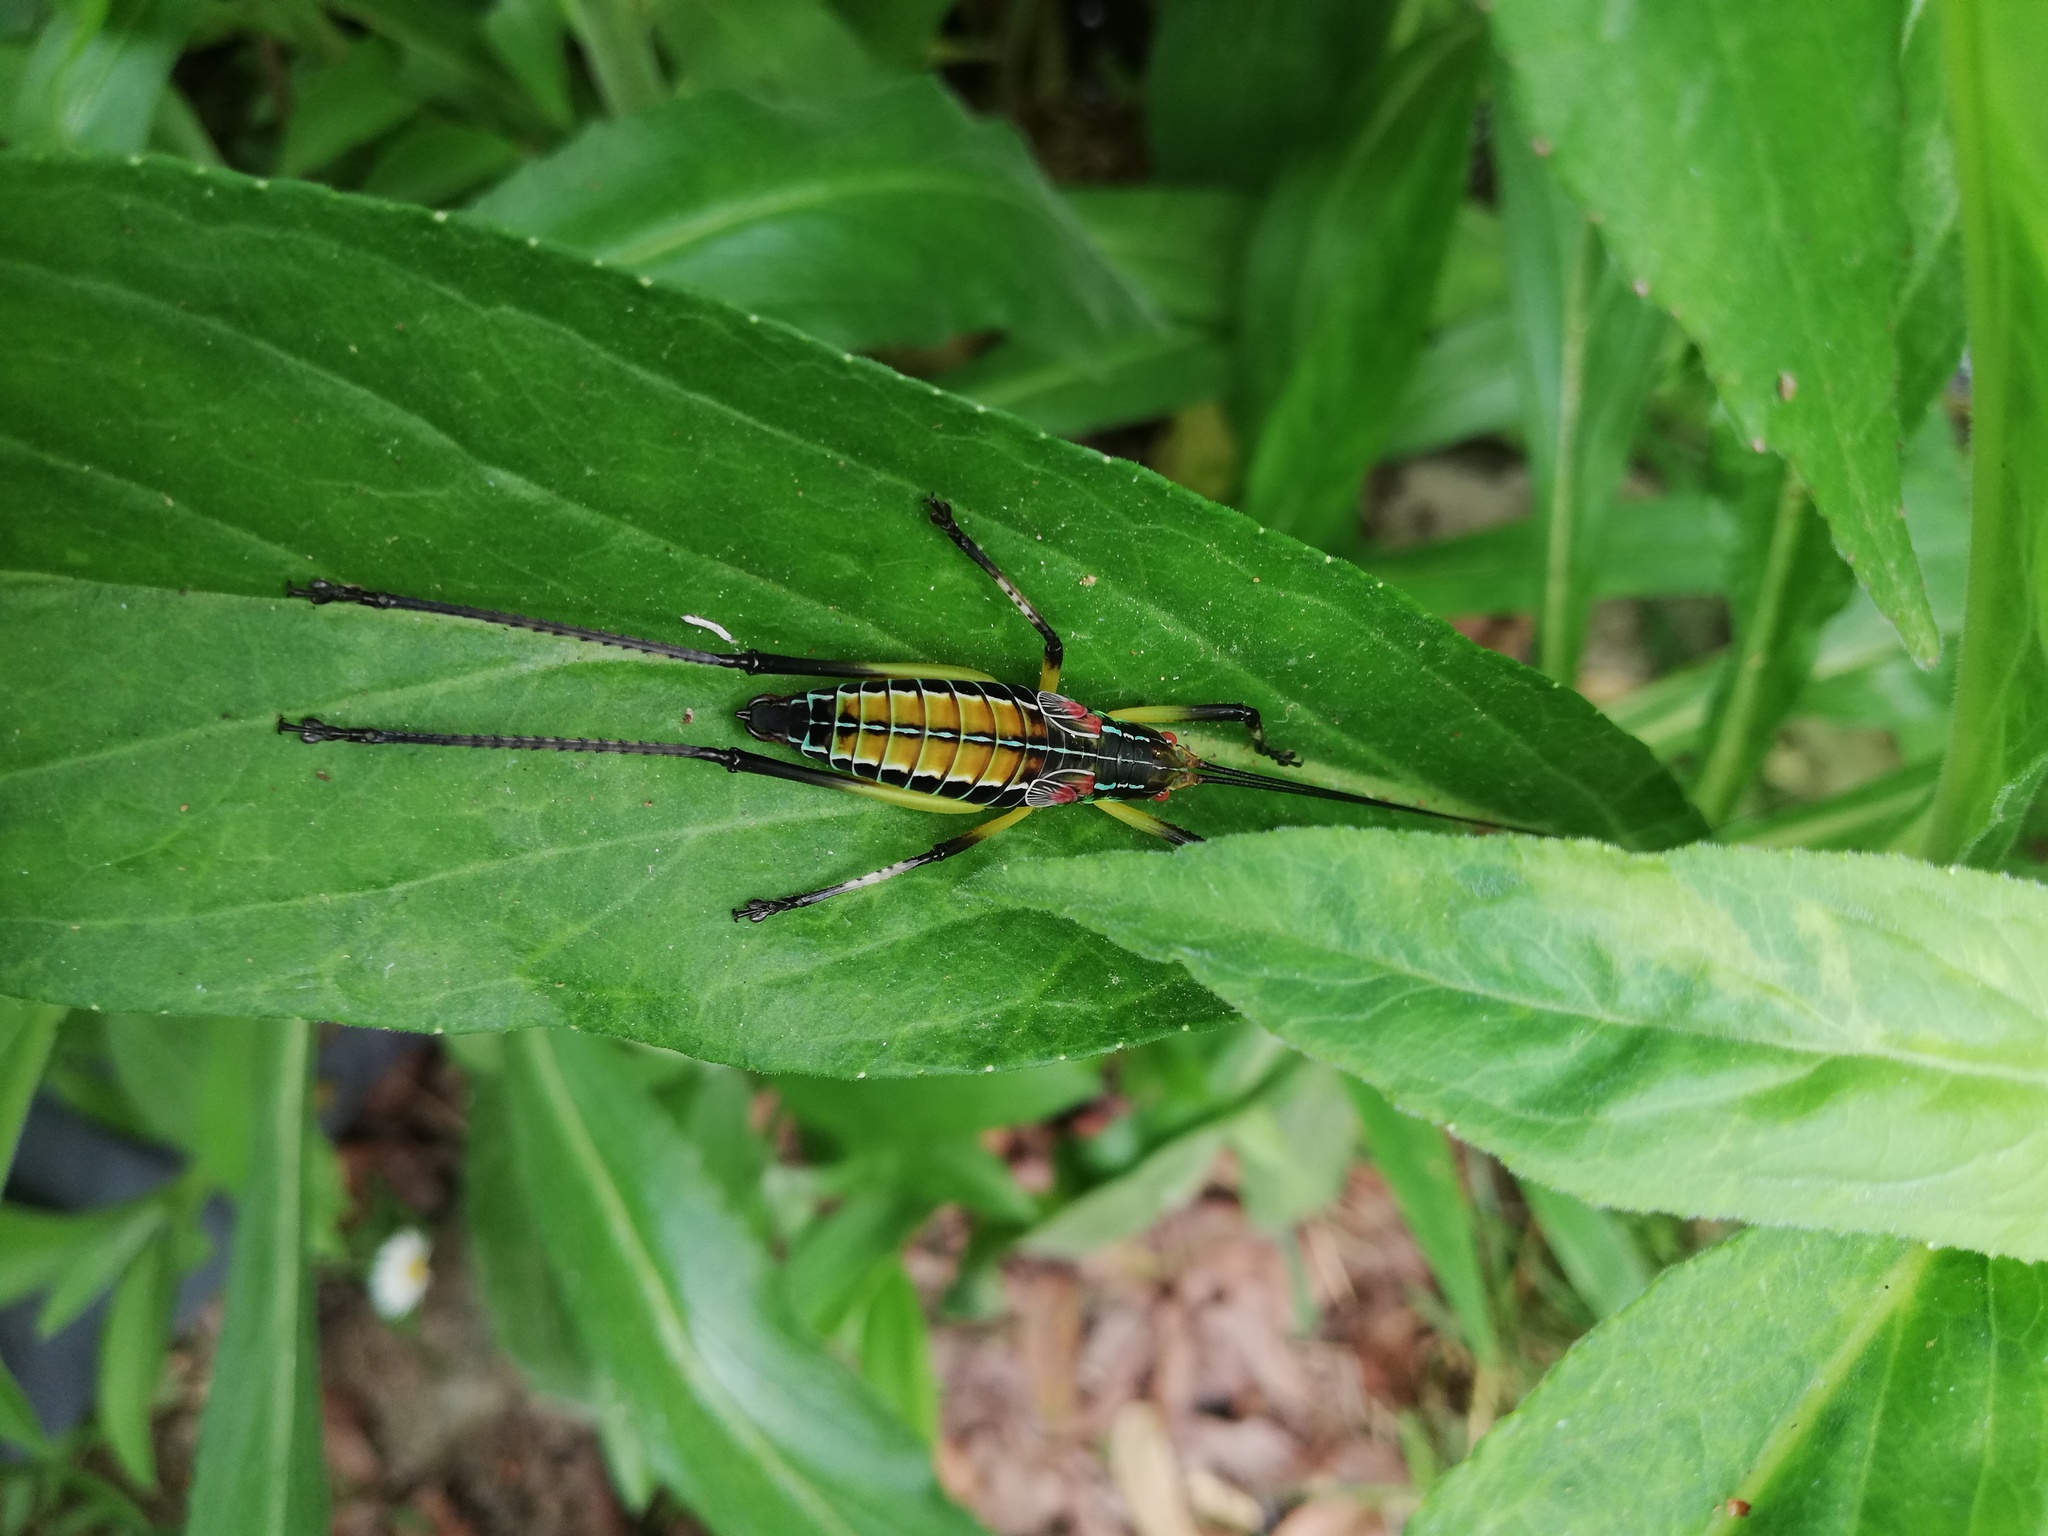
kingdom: Animalia
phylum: Arthropoda
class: Insecta
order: Orthoptera
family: Tettigoniidae
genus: Pterophylla
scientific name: Pterophylla beltrani
